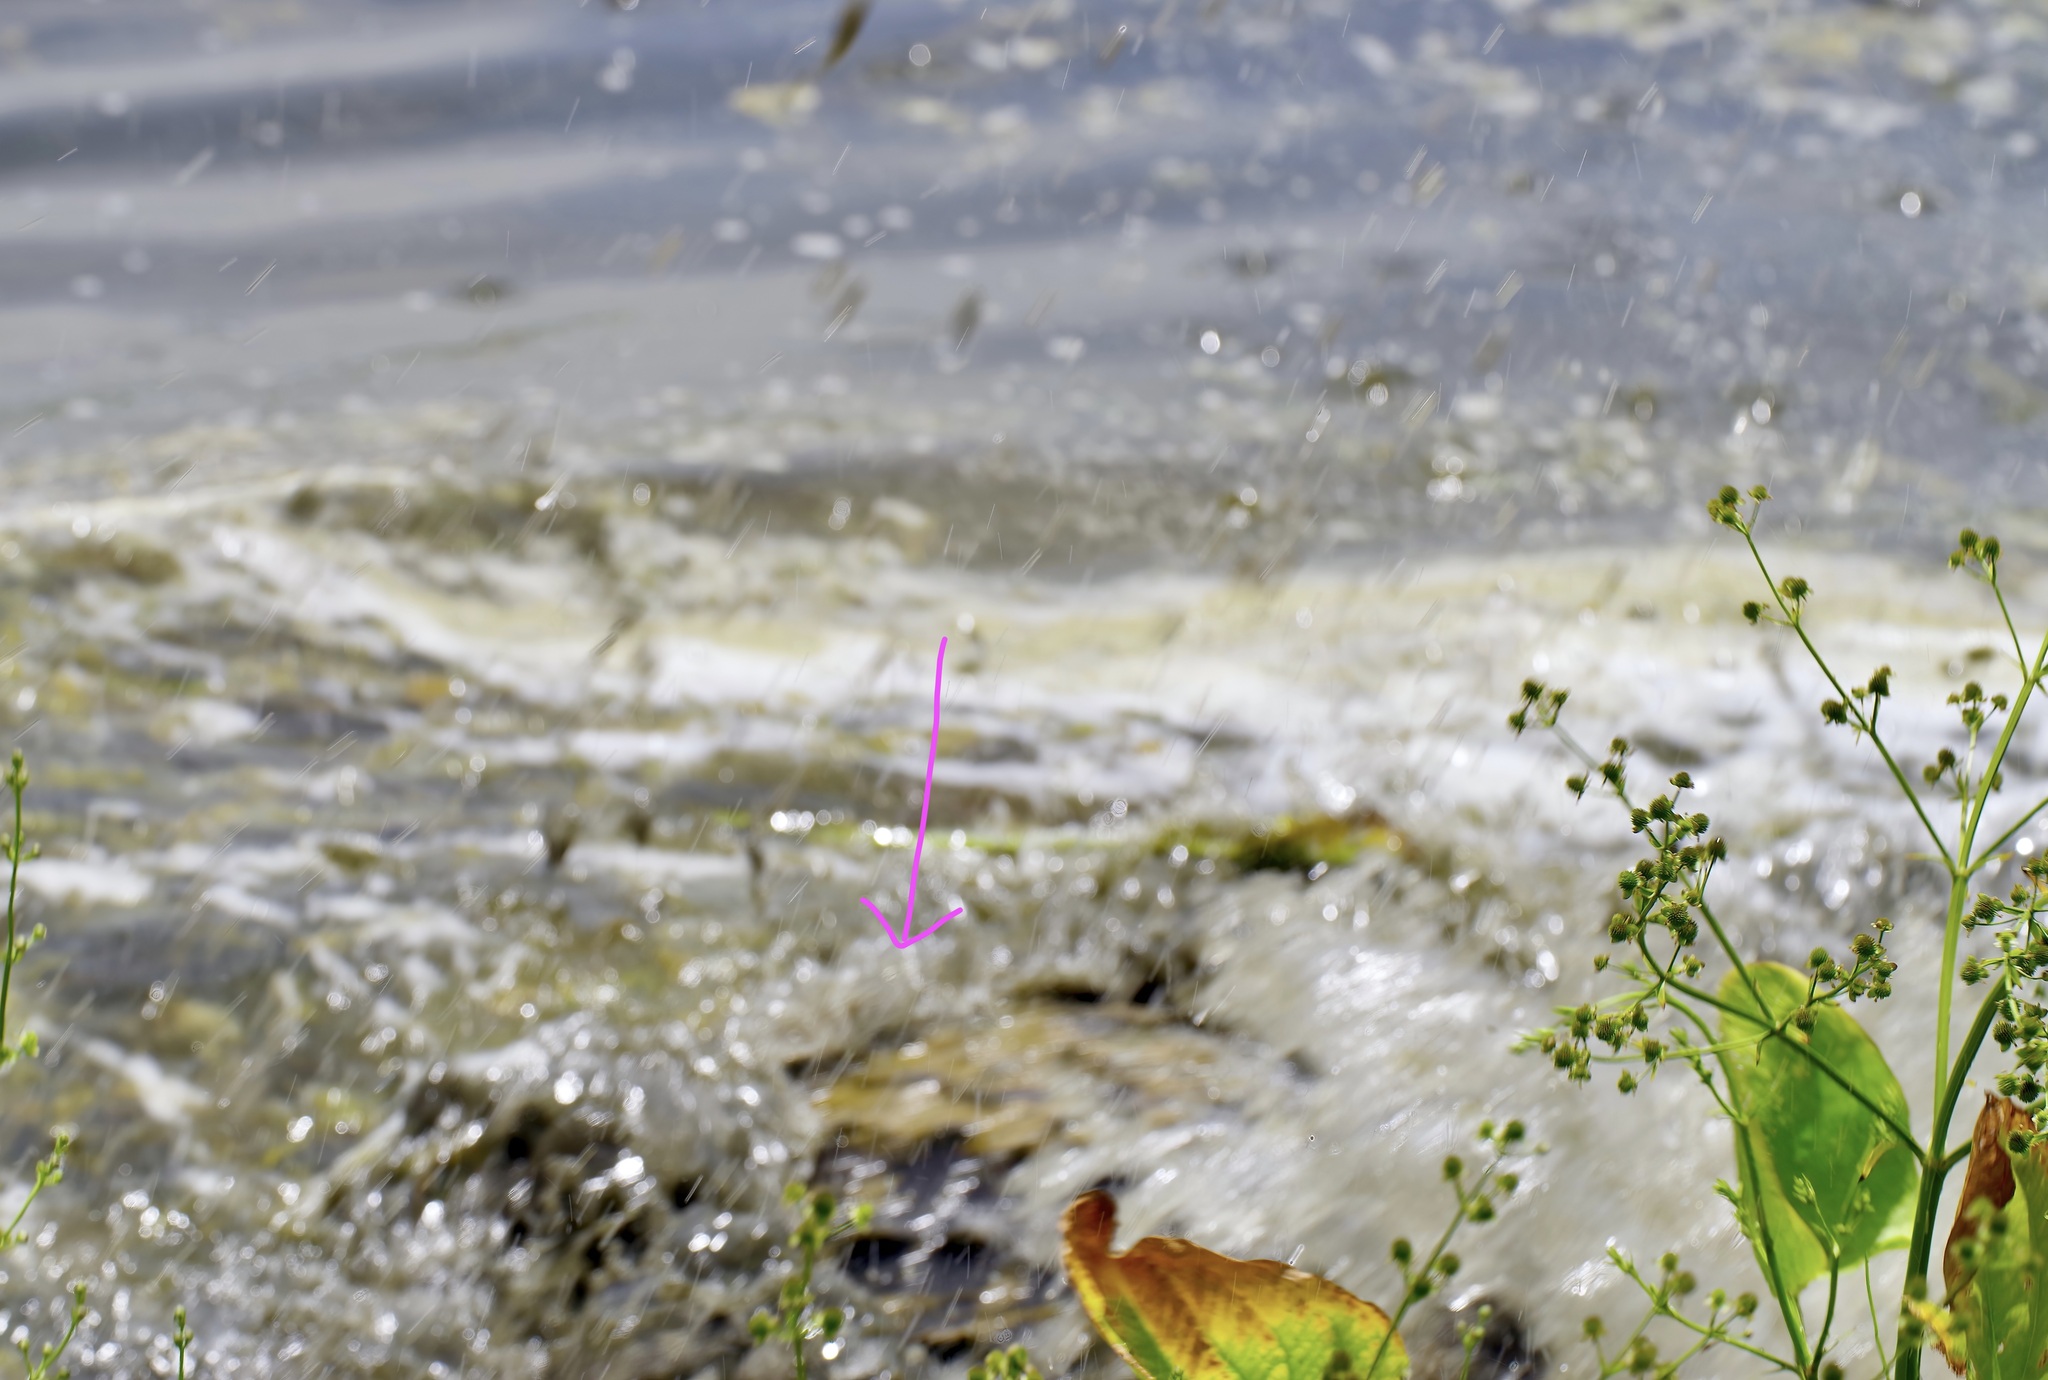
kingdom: Animalia
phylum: Chordata
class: Crocodylia
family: Alligatoridae
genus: Alligator
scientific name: Alligator mississippiensis
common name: American alligator
